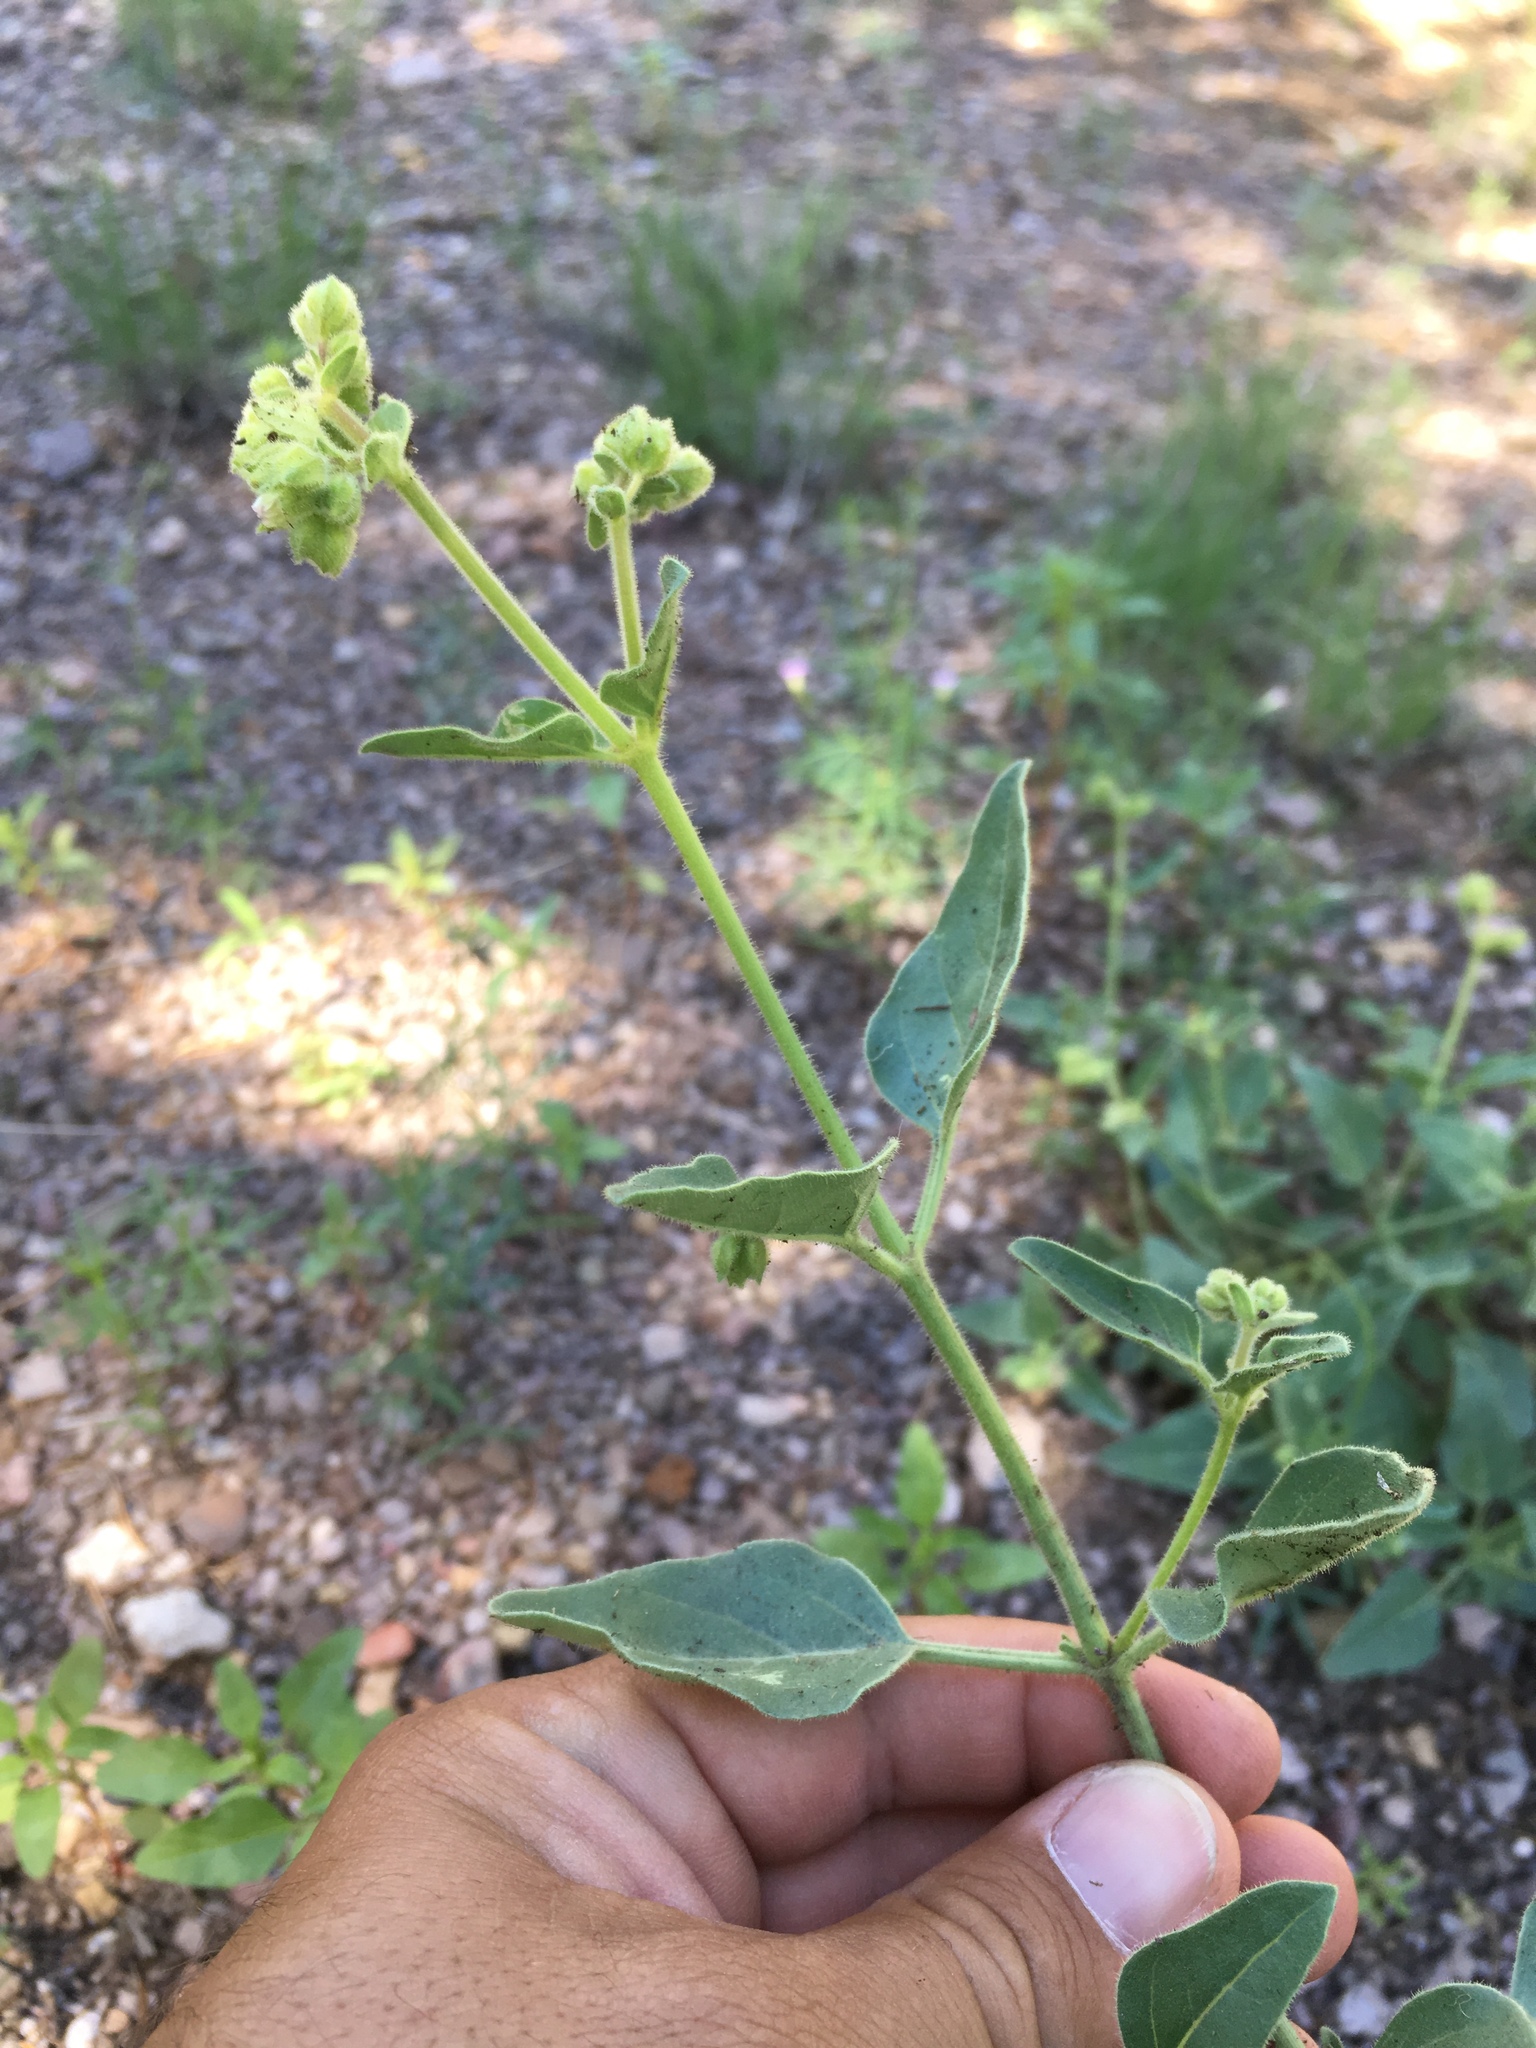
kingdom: Plantae
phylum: Tracheophyta
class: Magnoliopsida
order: Caryophyllales
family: Nyctaginaceae
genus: Mirabilis
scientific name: Mirabilis oxybaphoides
